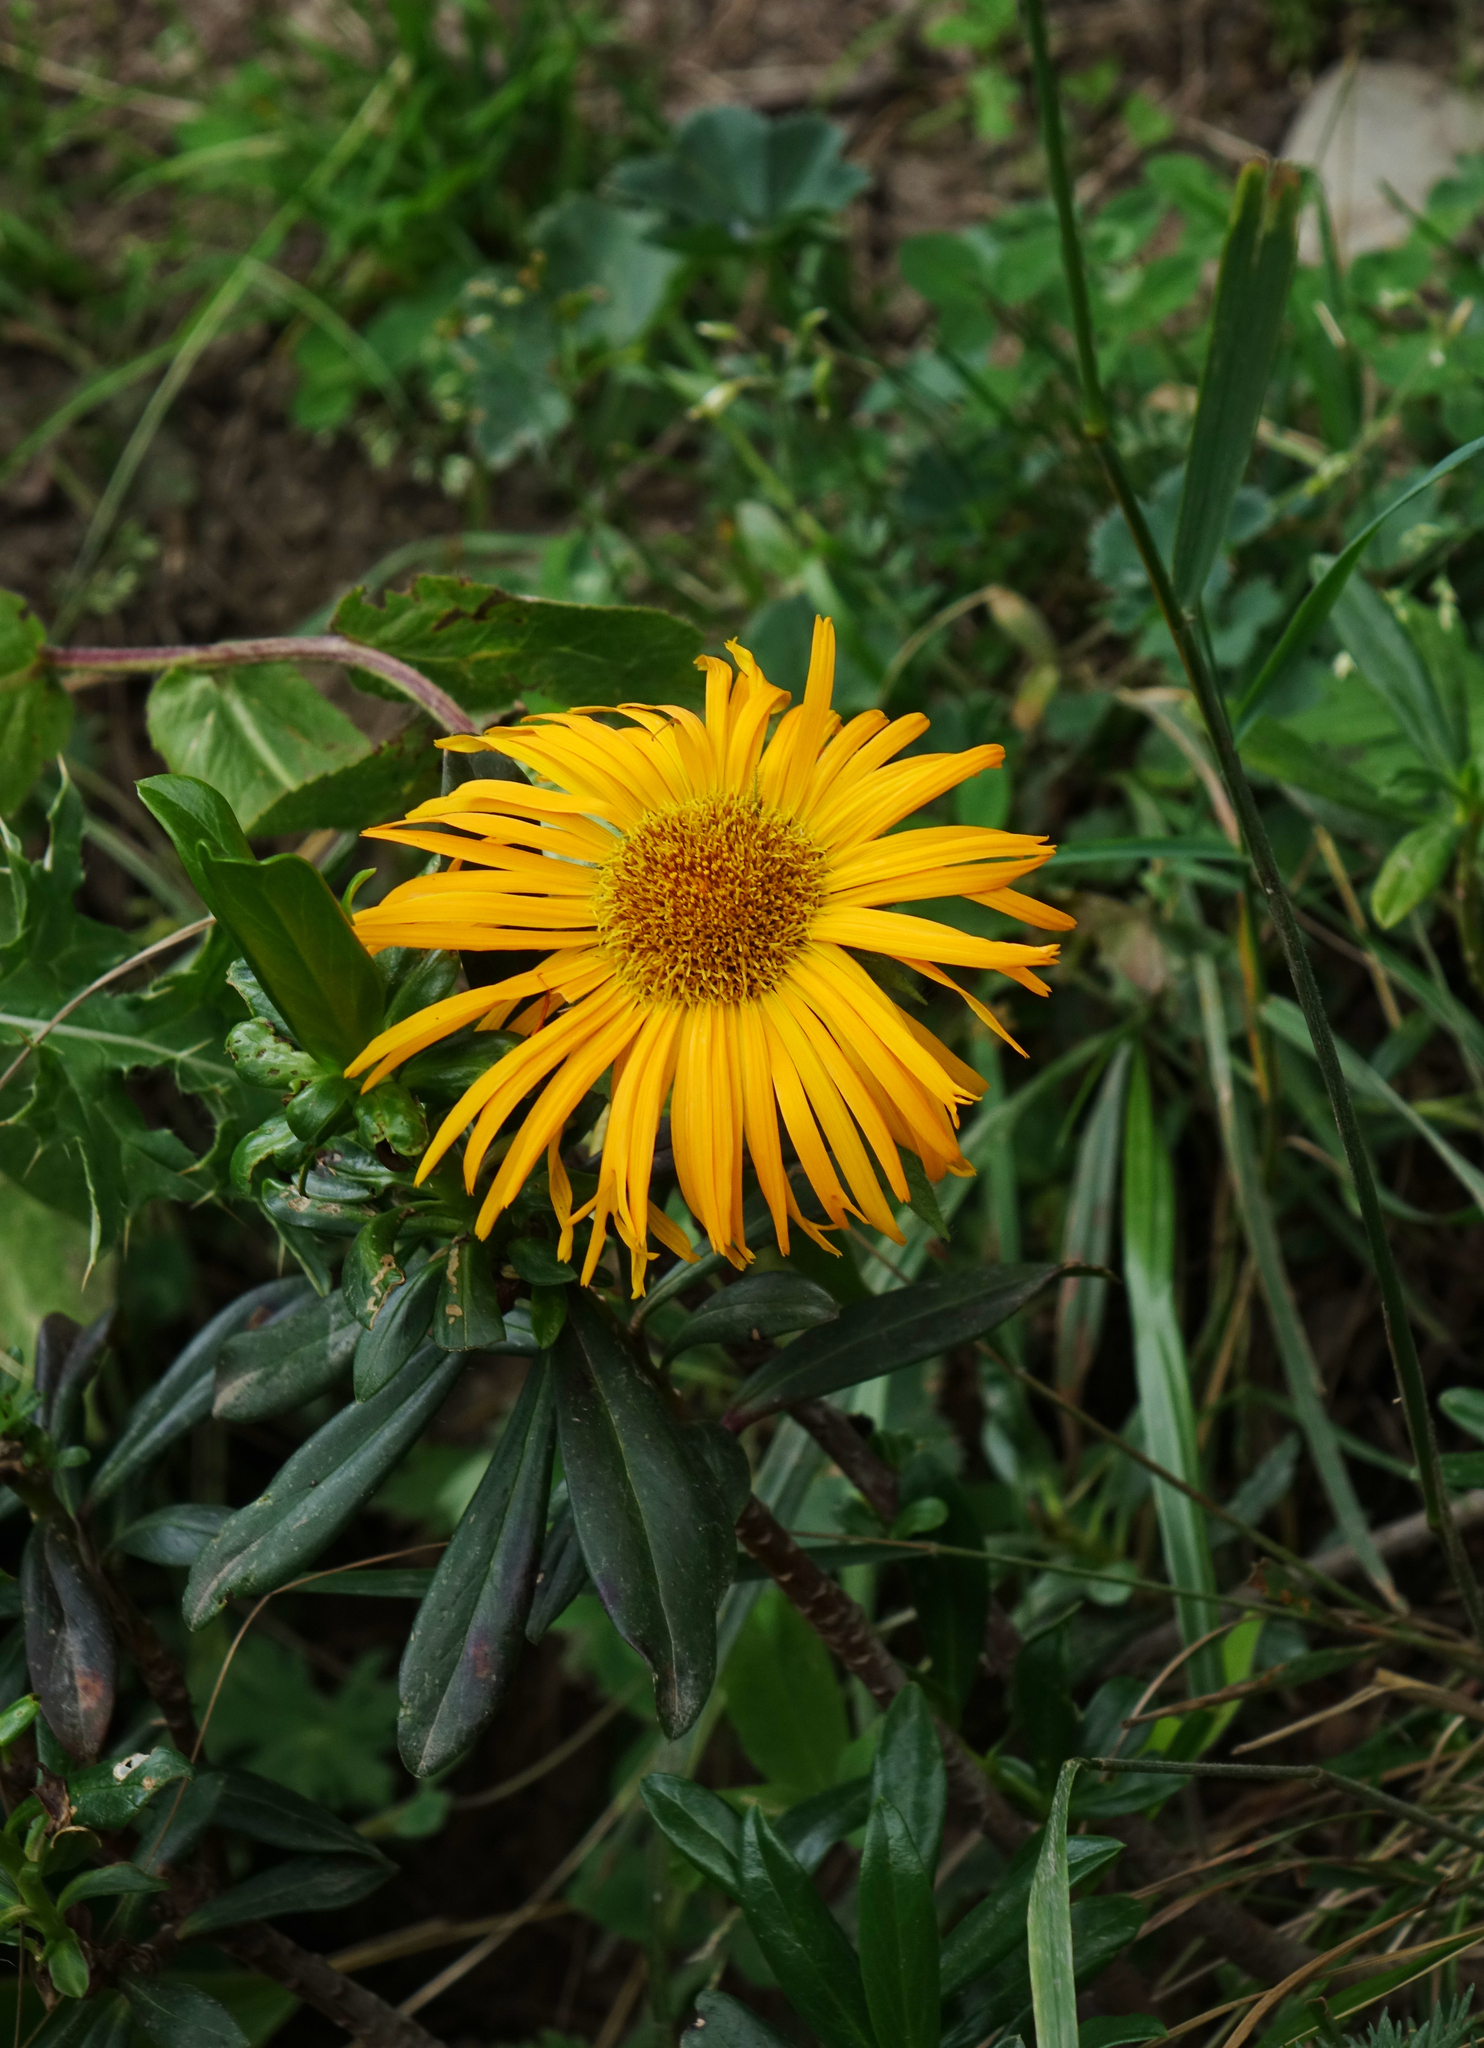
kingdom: Plantae
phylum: Tracheophyta
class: Magnoliopsida
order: Asterales
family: Asteraceae
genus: Pentanema
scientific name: Pentanema orientale
